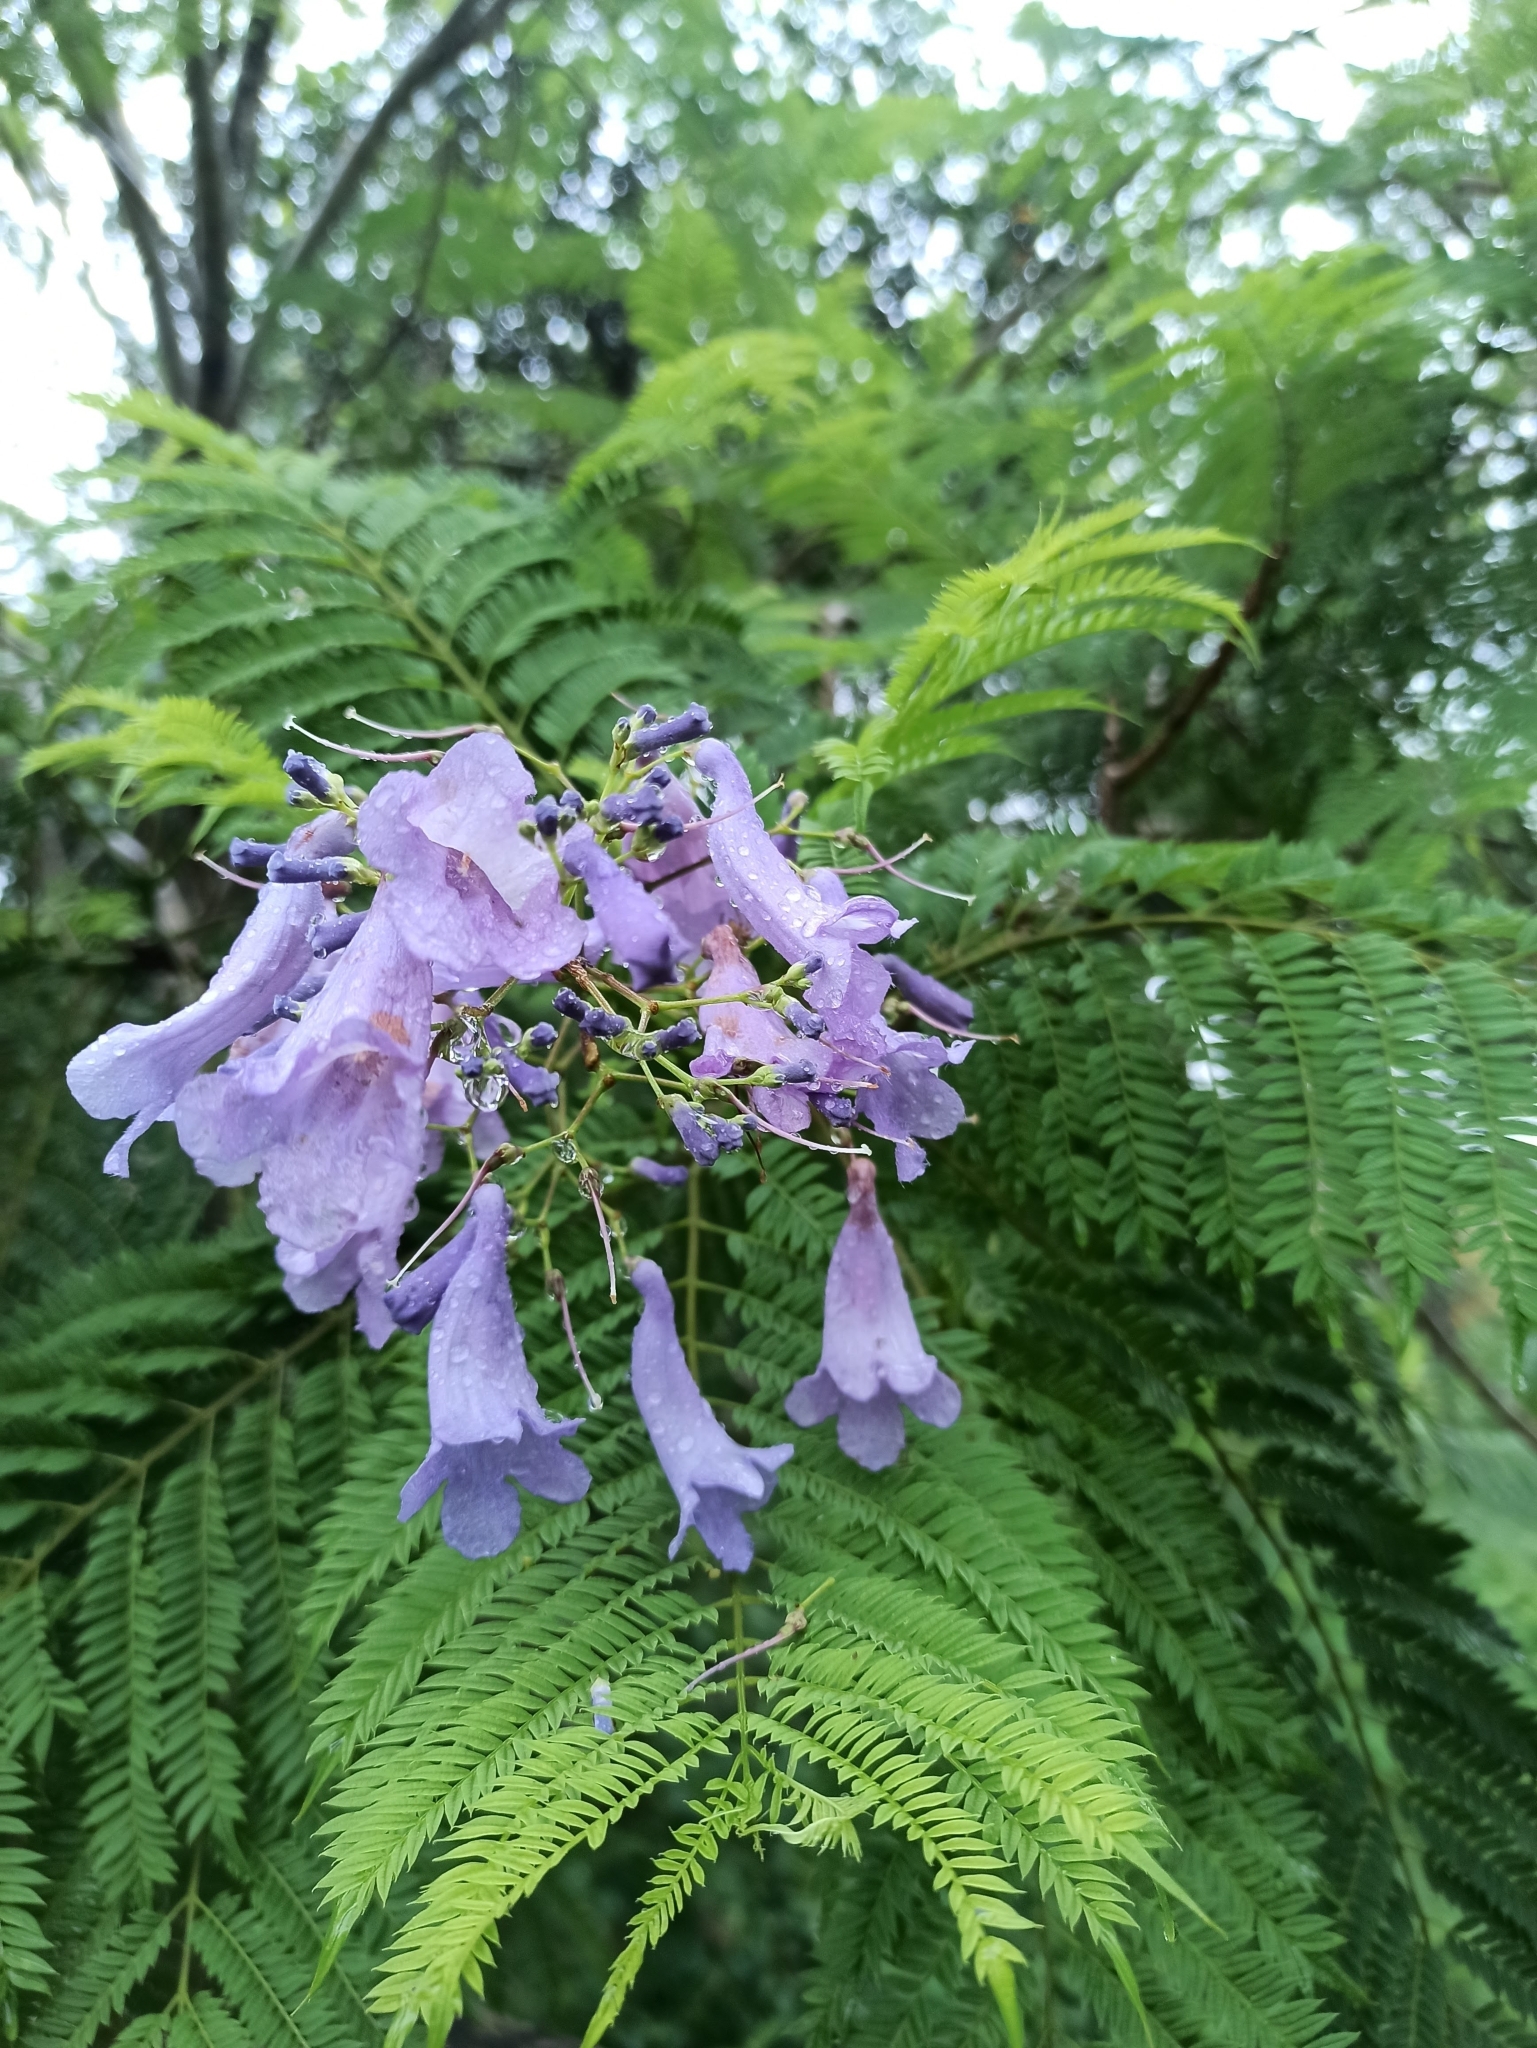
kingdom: Plantae
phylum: Tracheophyta
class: Magnoliopsida
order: Lamiales
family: Bignoniaceae
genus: Jacaranda
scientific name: Jacaranda mimosifolia
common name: Black poui
